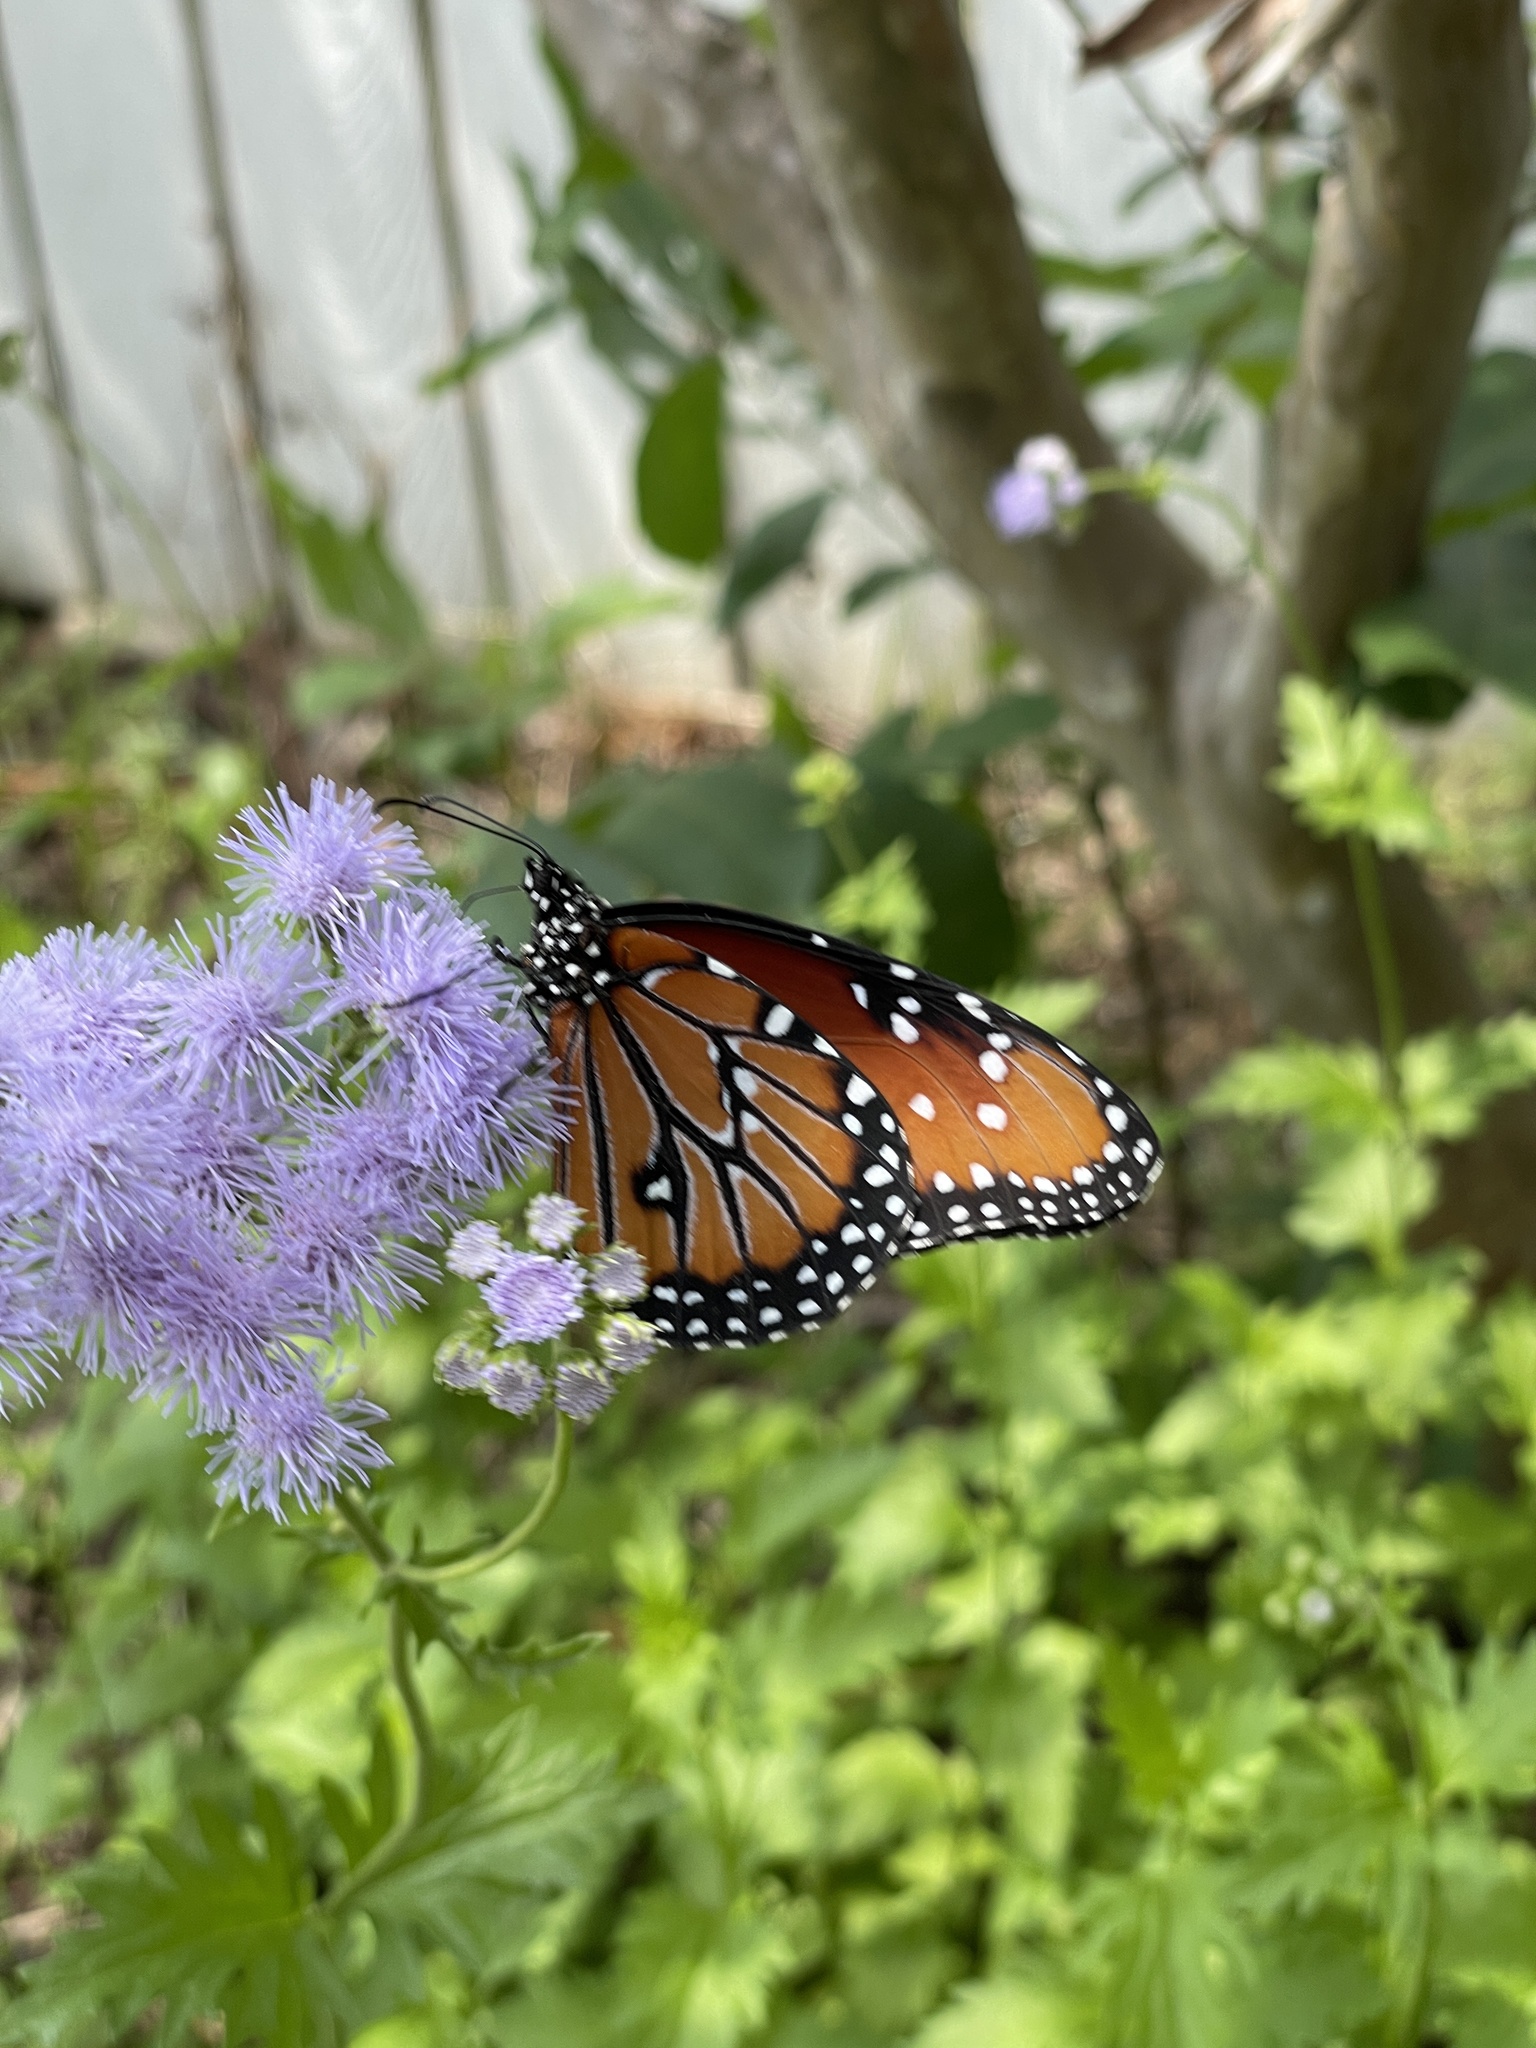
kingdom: Animalia
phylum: Arthropoda
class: Insecta
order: Lepidoptera
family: Nymphalidae
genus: Danaus
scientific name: Danaus gilippus
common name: Queen
